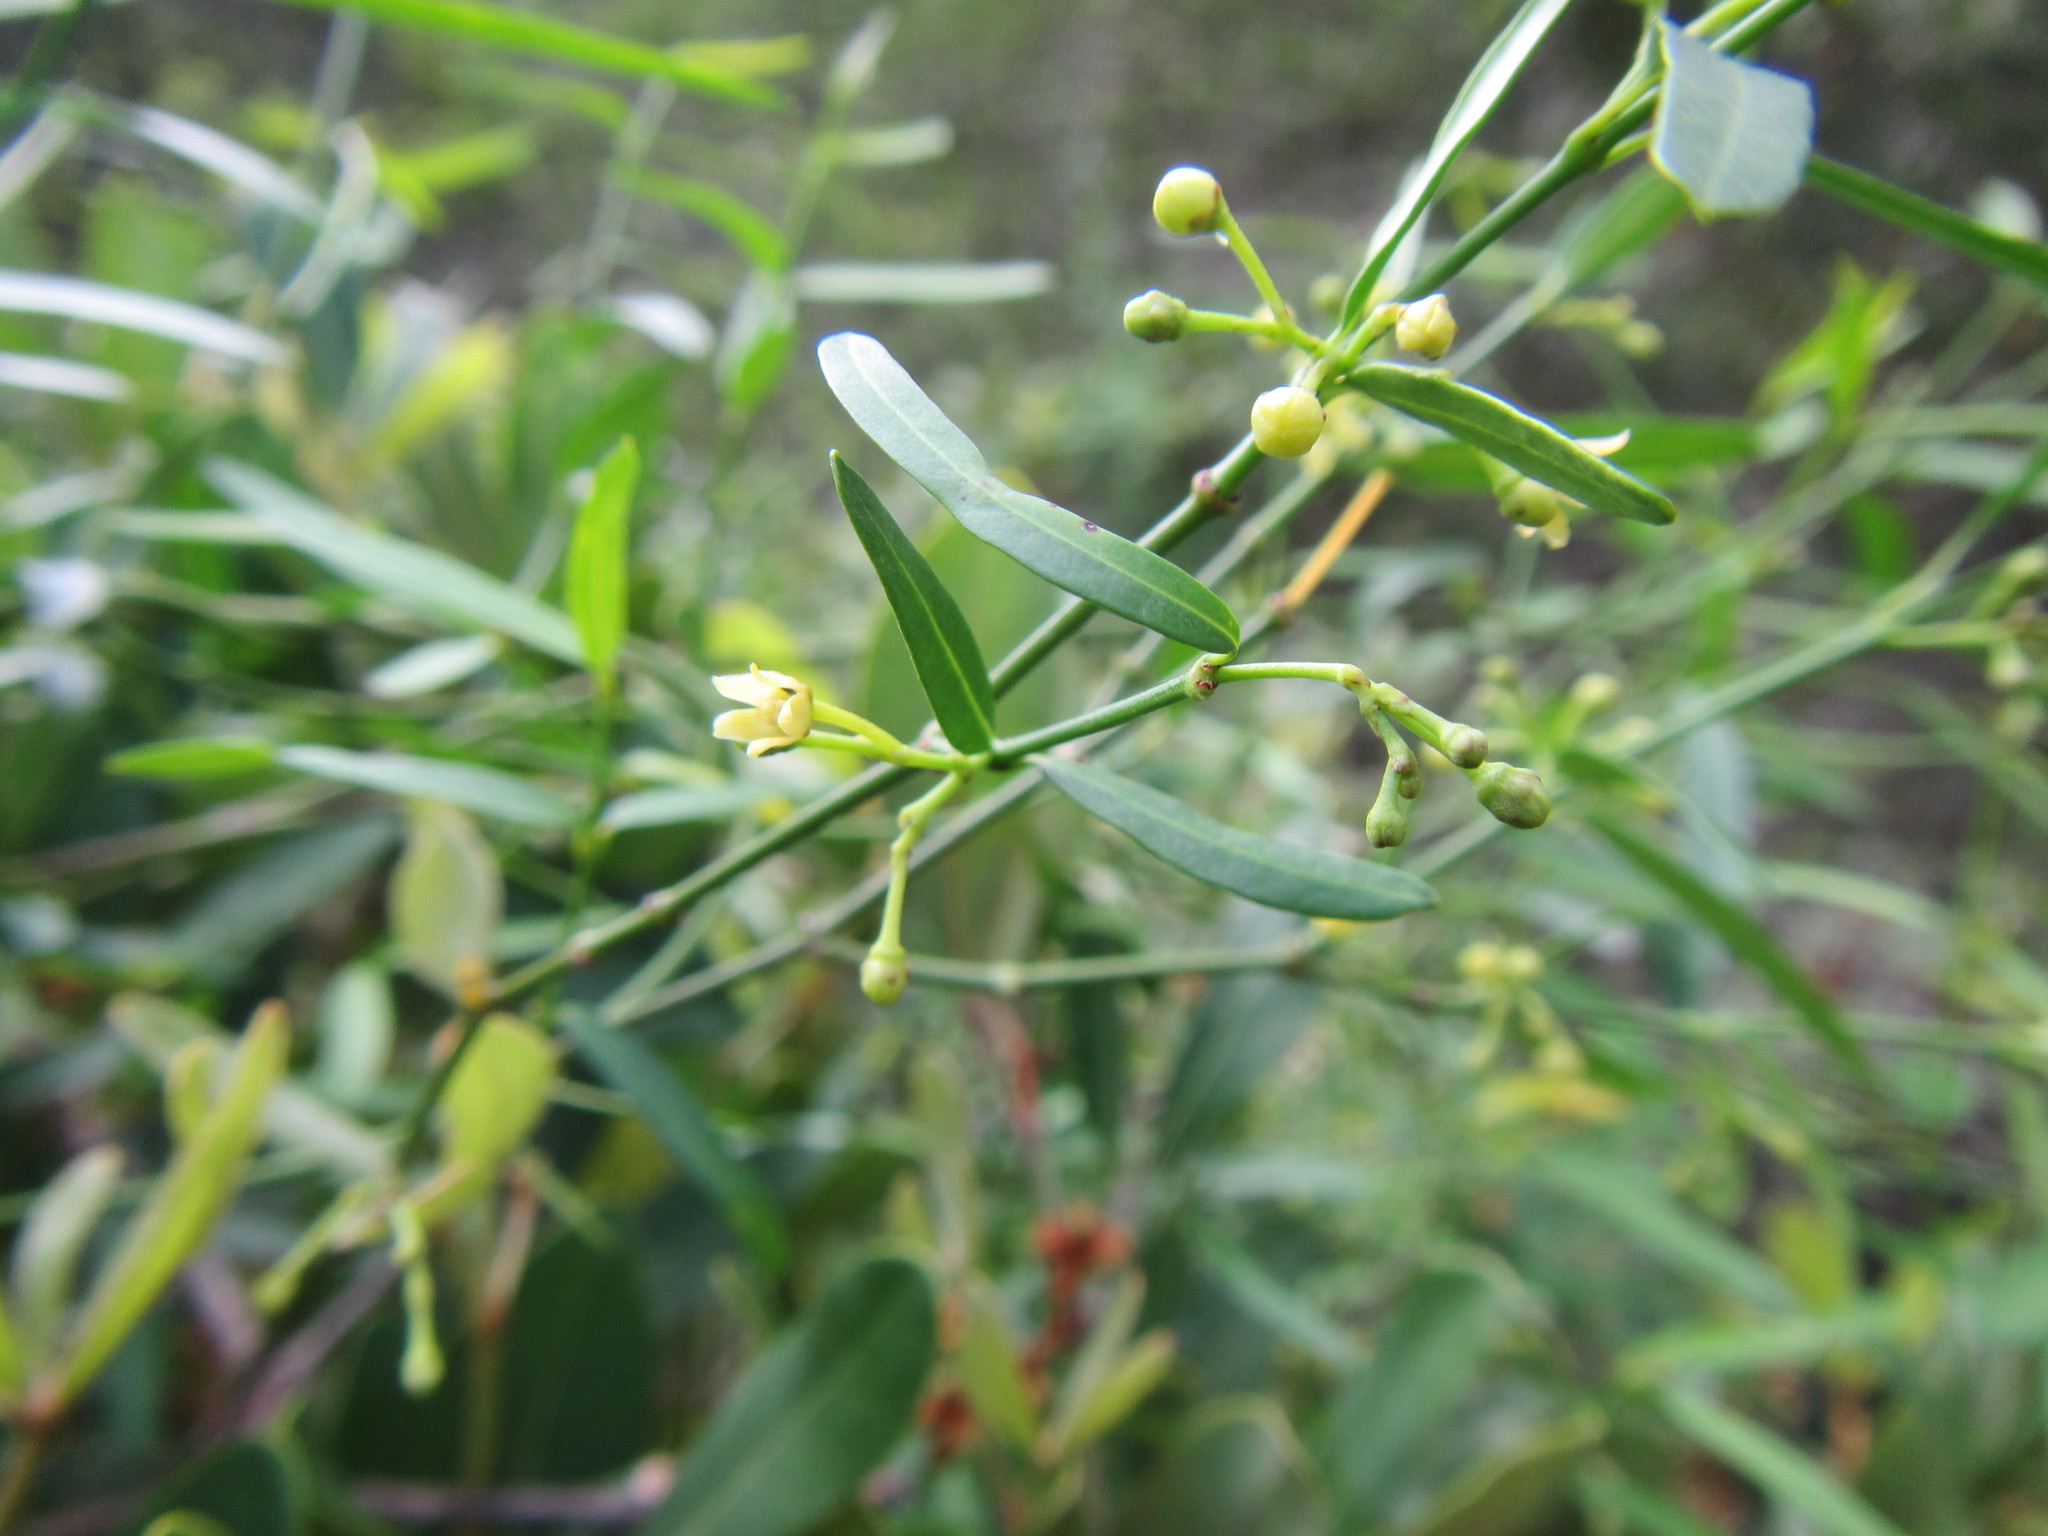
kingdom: Plantae
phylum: Tracheophyta
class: Magnoliopsida
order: Gentianales
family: Apocynaceae
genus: Secamone
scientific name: Secamone filiformis
